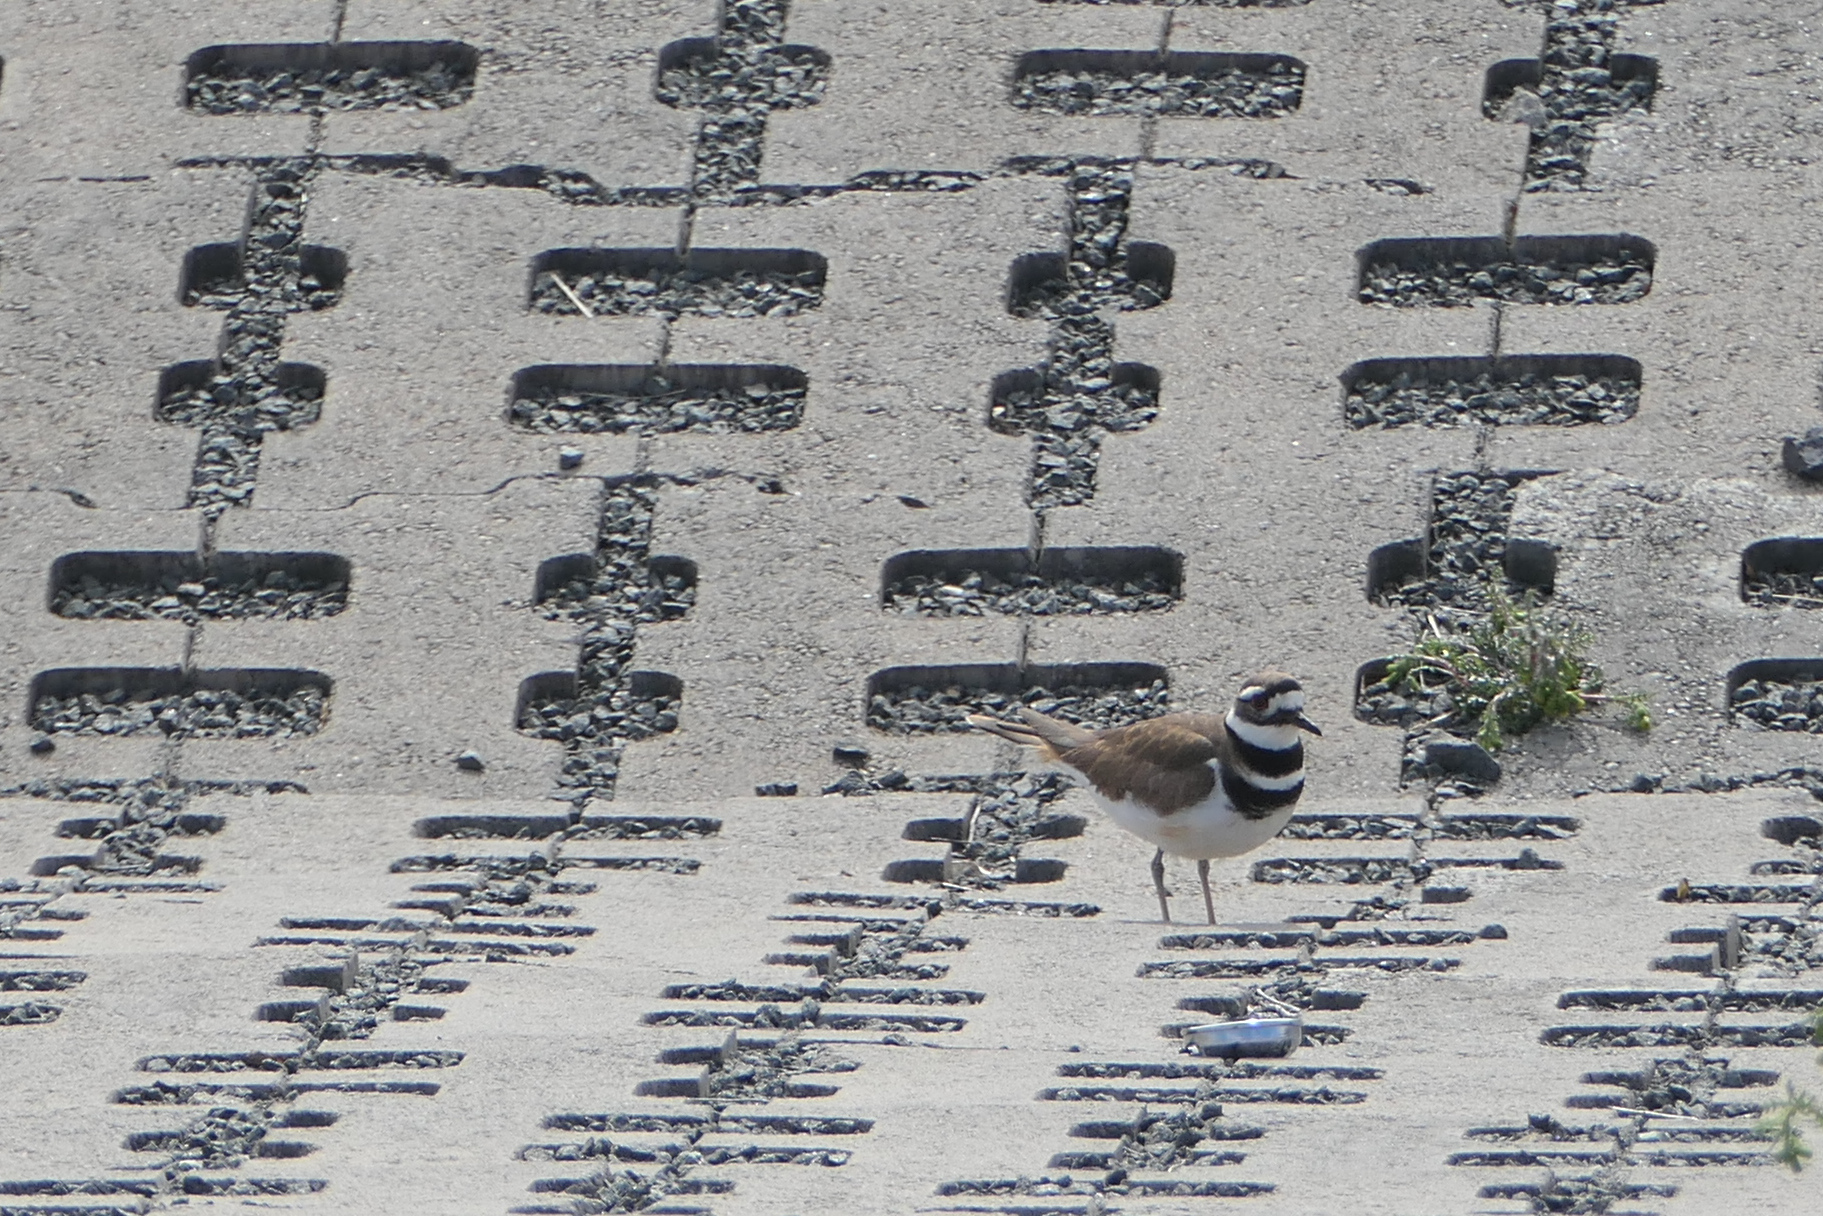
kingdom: Animalia
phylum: Chordata
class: Aves
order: Charadriiformes
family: Charadriidae
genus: Charadrius
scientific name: Charadrius vociferus
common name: Killdeer
